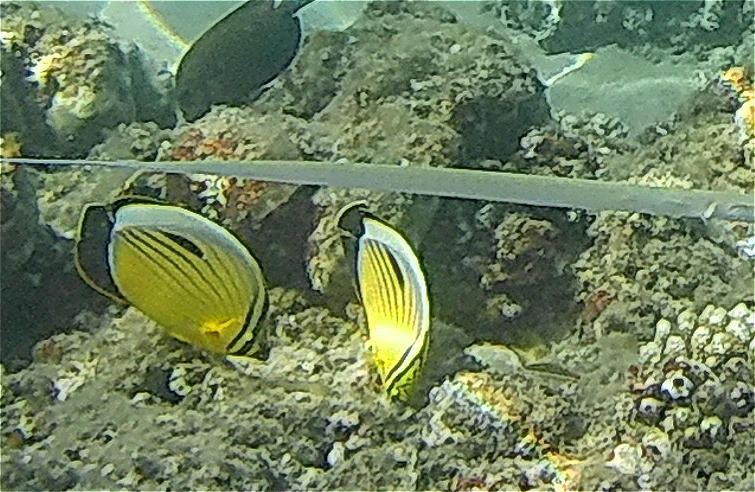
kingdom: Animalia
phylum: Chordata
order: Perciformes
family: Chaetodontidae
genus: Chaetodon
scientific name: Chaetodon austriacus
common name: Exquisite butterflyfish
